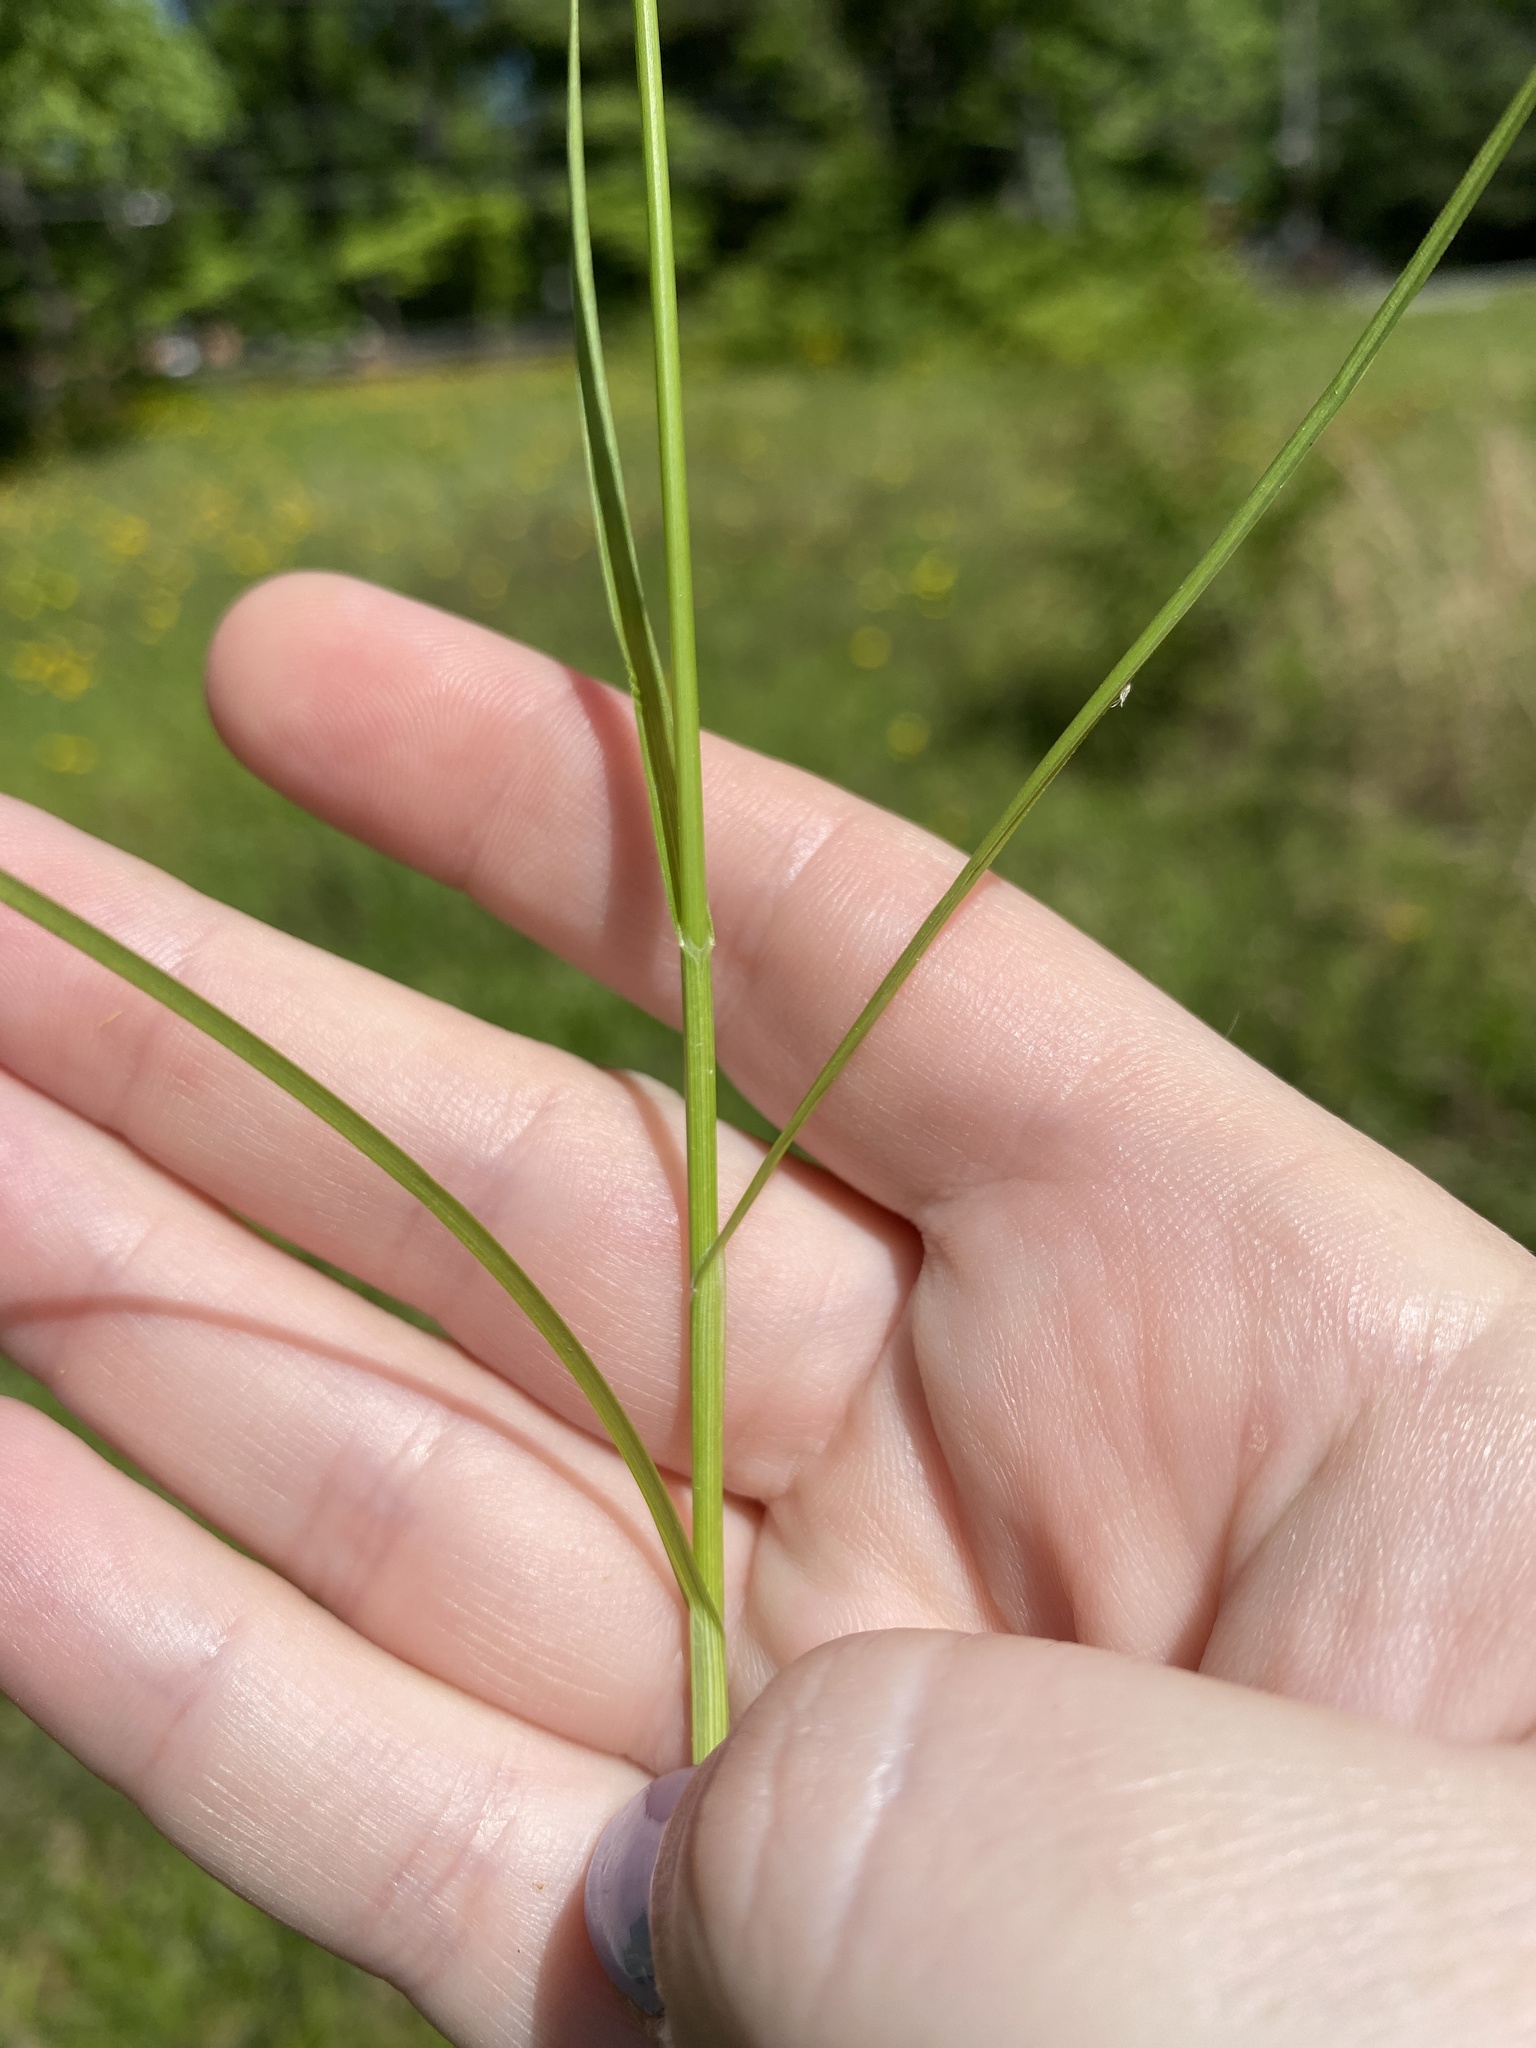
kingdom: Plantae
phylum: Tracheophyta
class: Liliopsida
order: Poales
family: Cyperaceae
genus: Carex
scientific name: Carex tribuloides
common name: Blunt broom sedge
